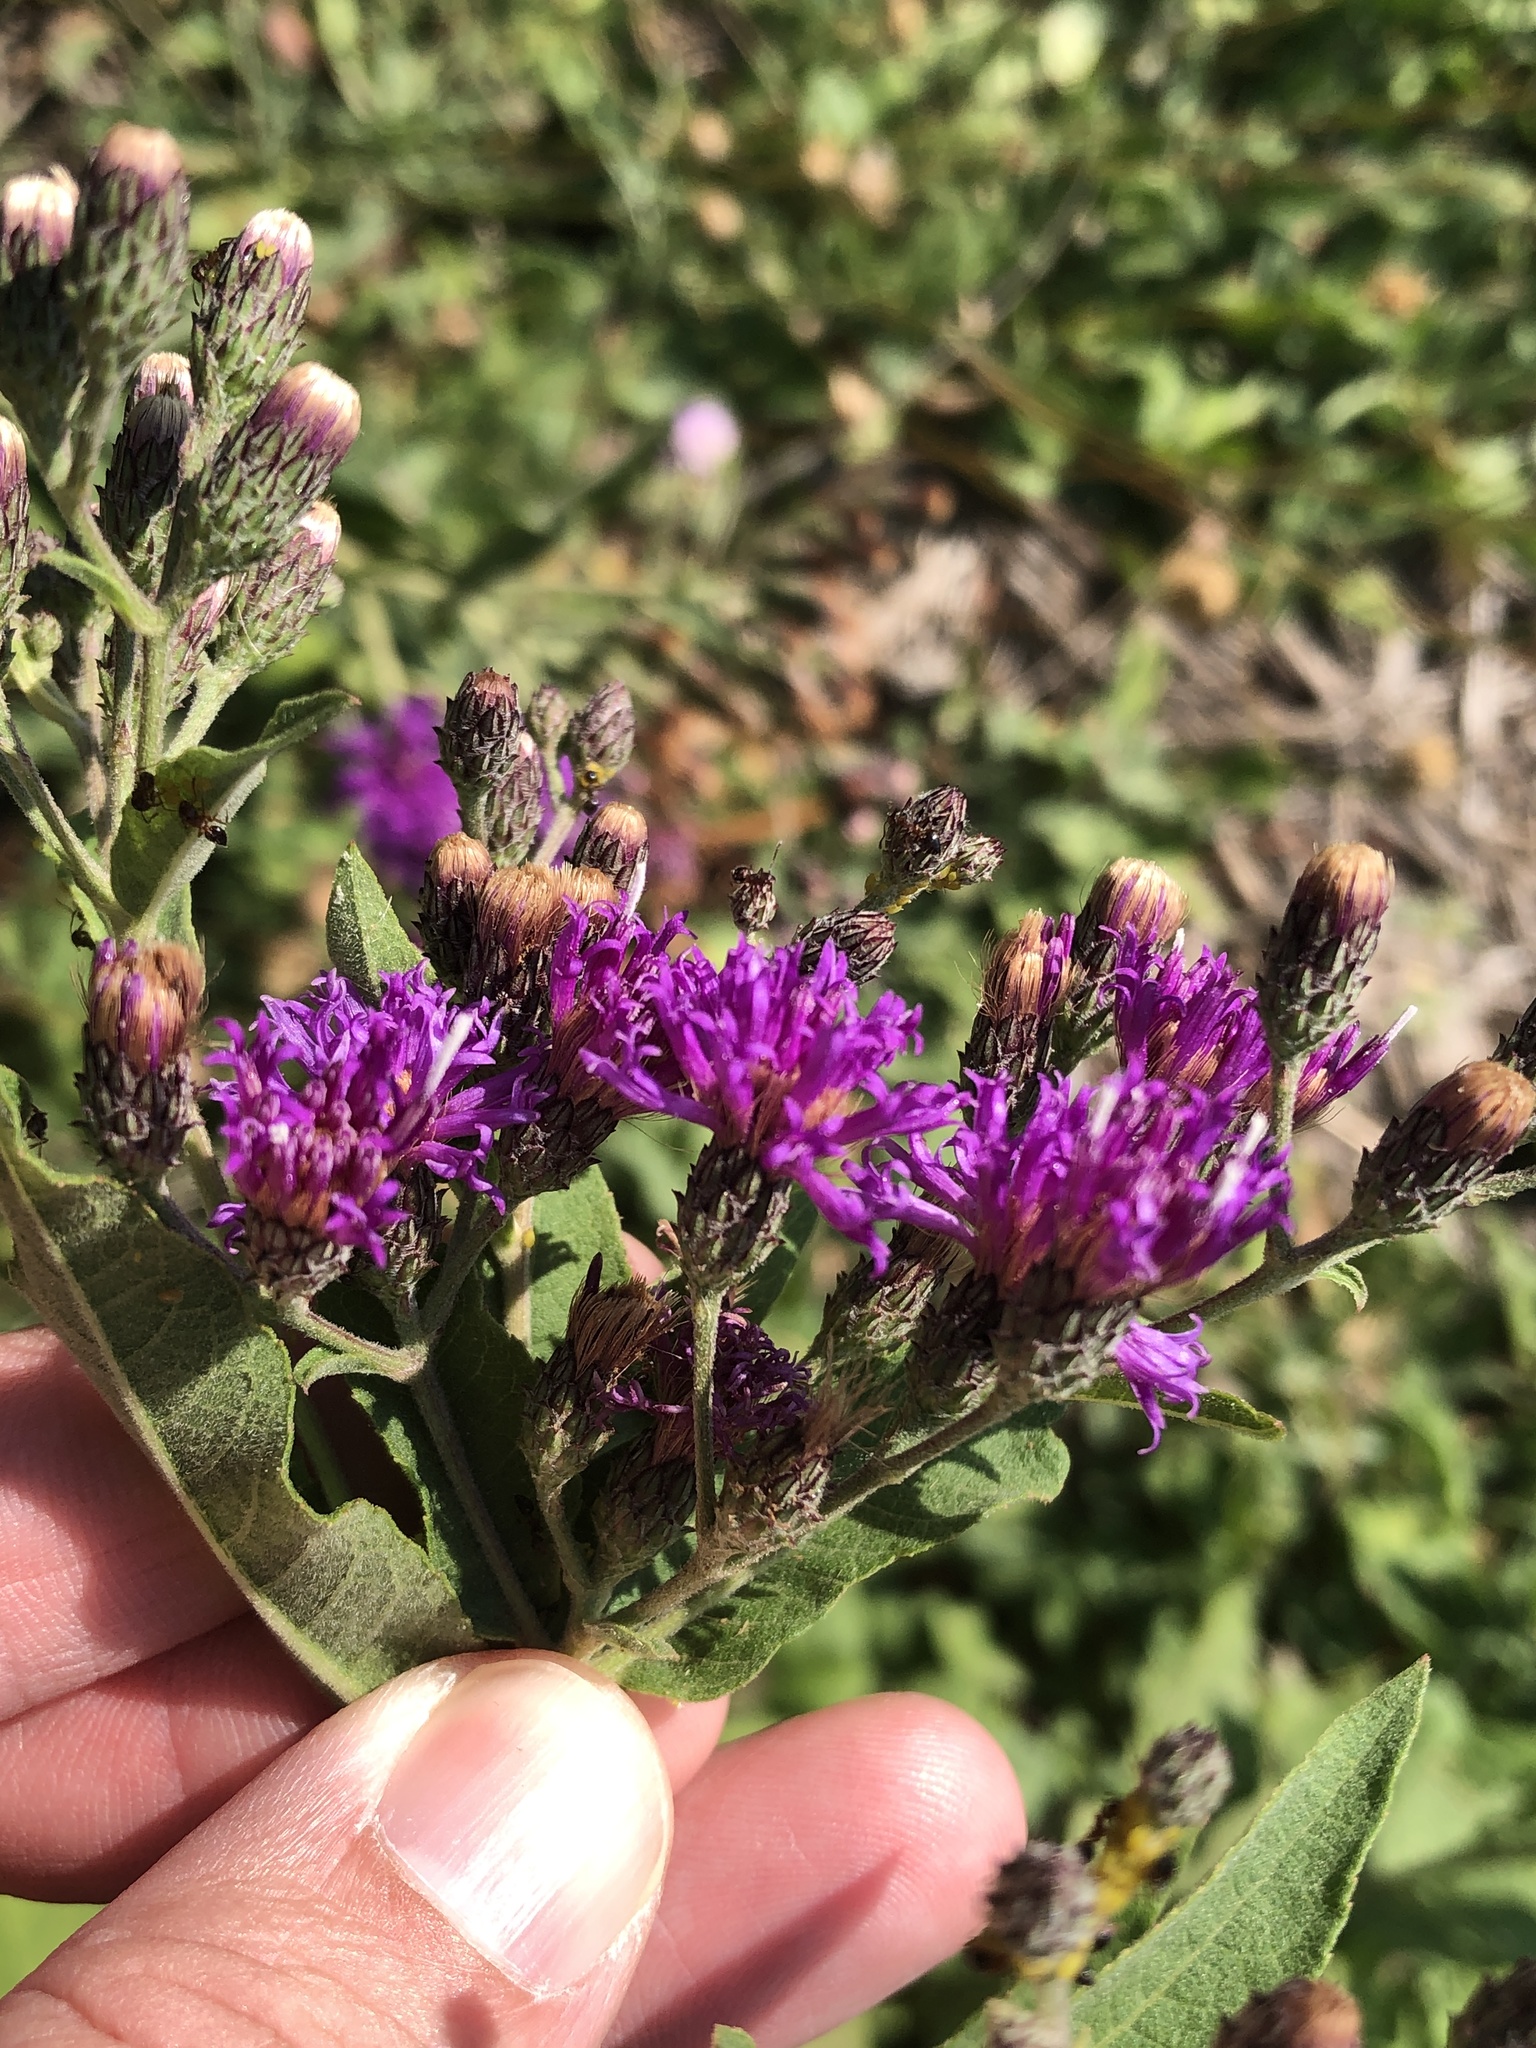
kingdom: Plantae
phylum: Tracheophyta
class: Magnoliopsida
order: Asterales
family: Asteraceae
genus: Vernonia
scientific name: Vernonia baldwinii
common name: Western ironweed
